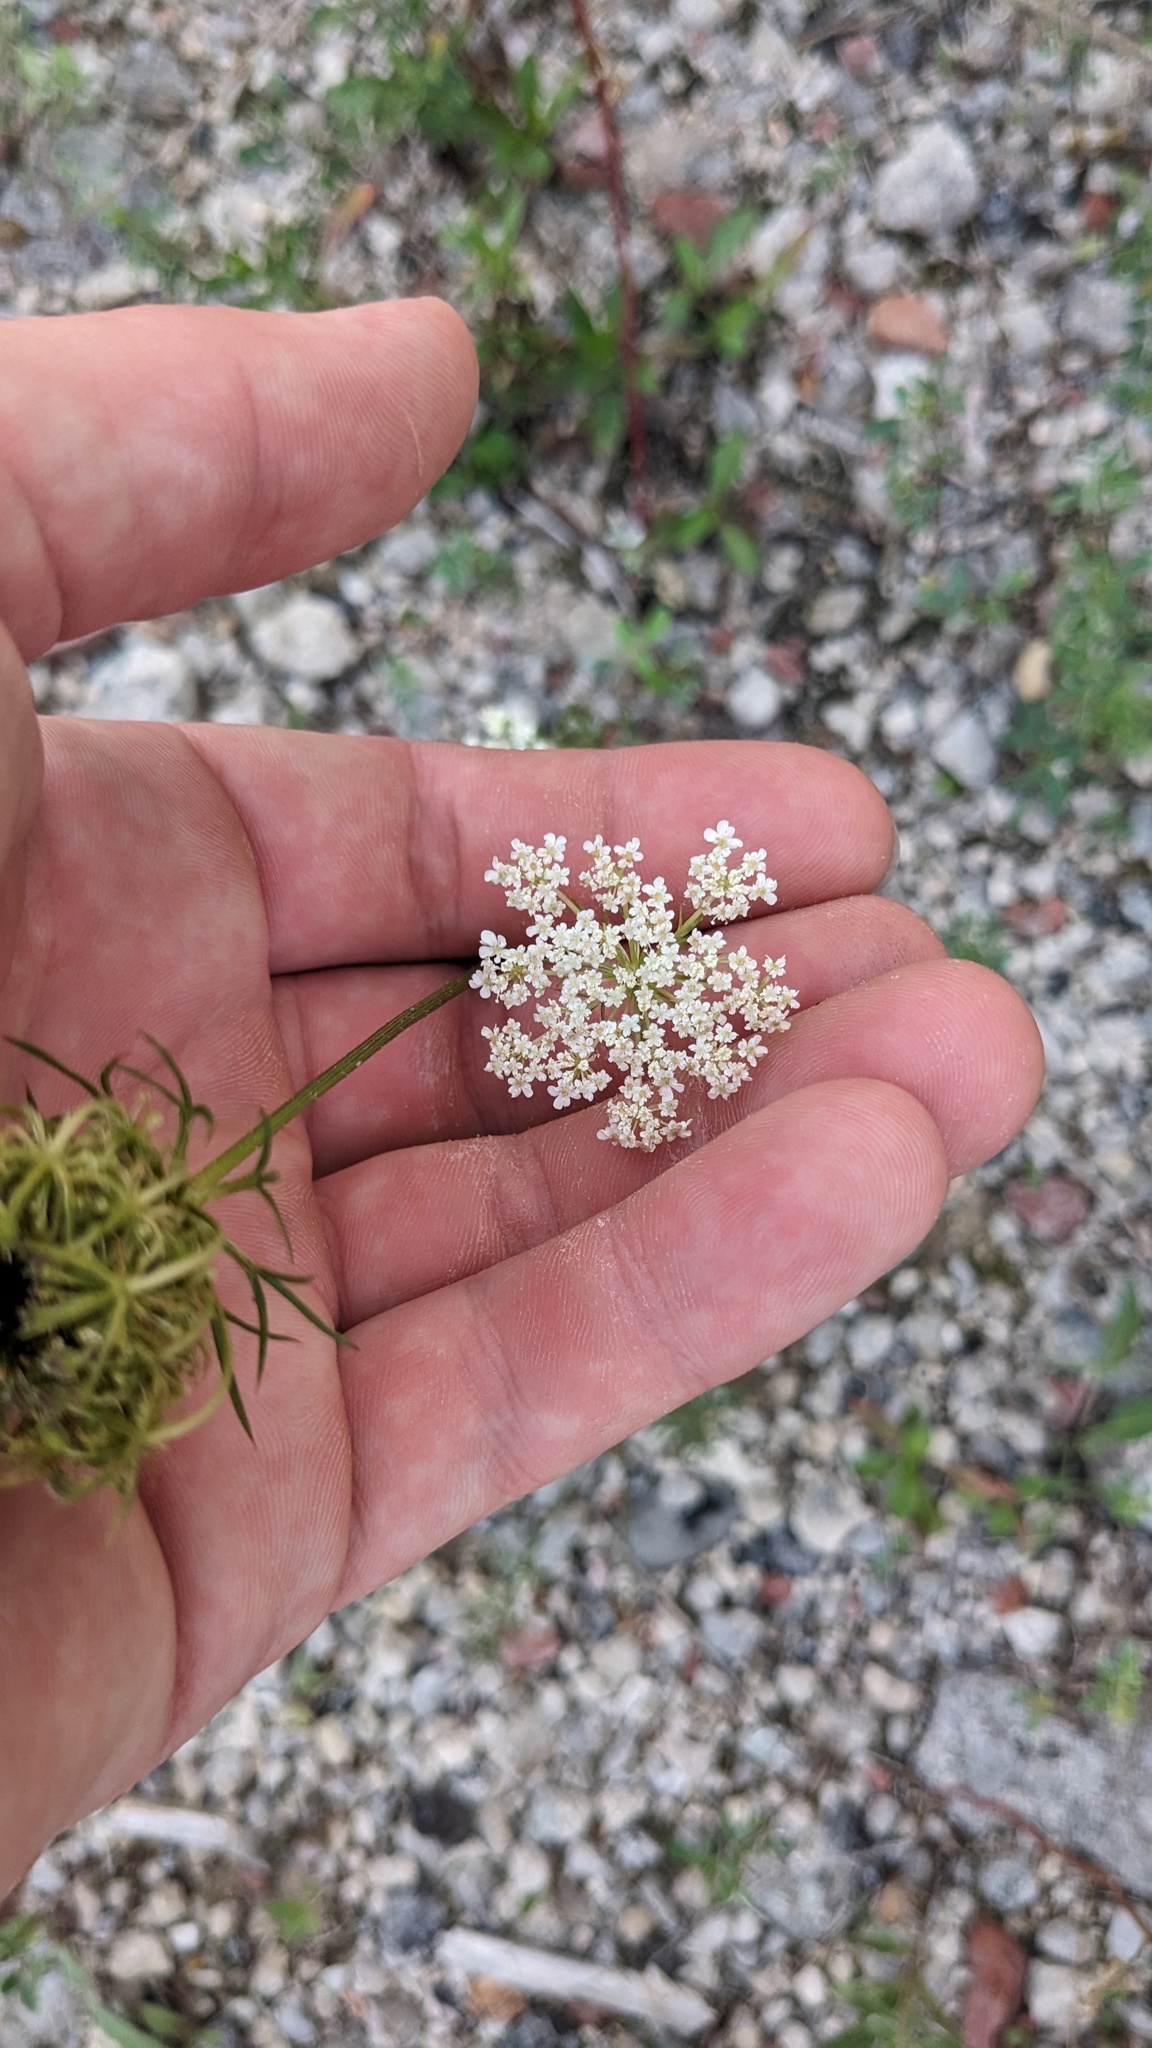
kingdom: Plantae
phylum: Tracheophyta
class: Magnoliopsida
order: Apiales
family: Apiaceae
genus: Daucus
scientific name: Daucus carota
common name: Wild carrot
